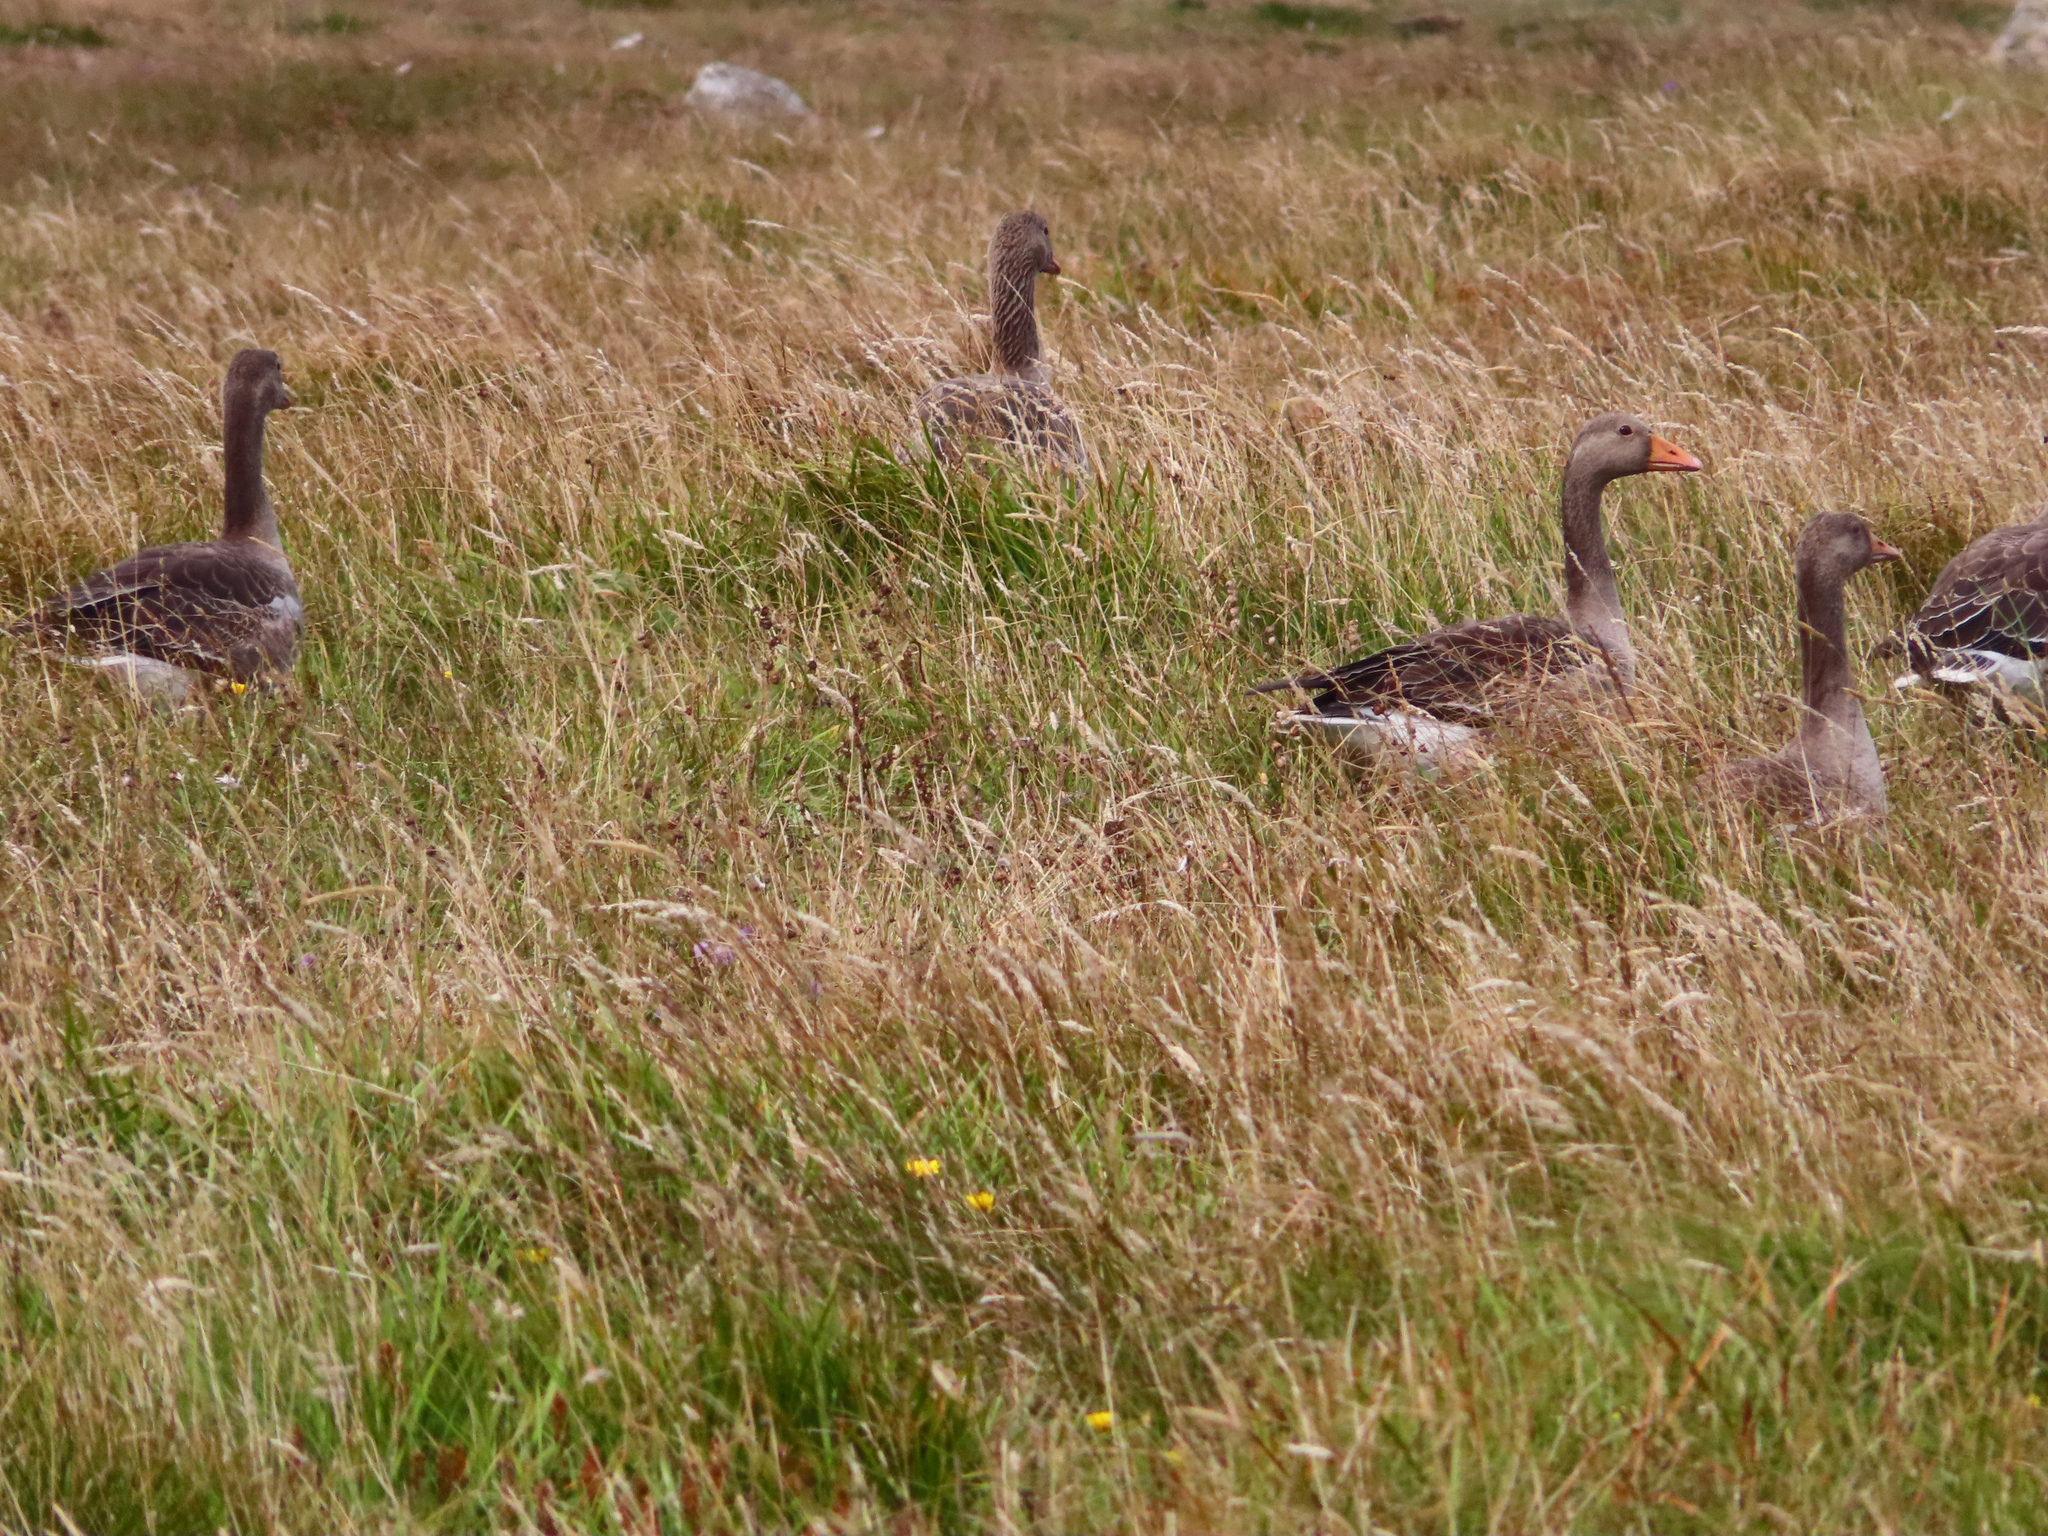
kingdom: Animalia
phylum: Chordata
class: Aves
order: Anseriformes
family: Anatidae
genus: Anser
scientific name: Anser anser
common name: Greylag goose
